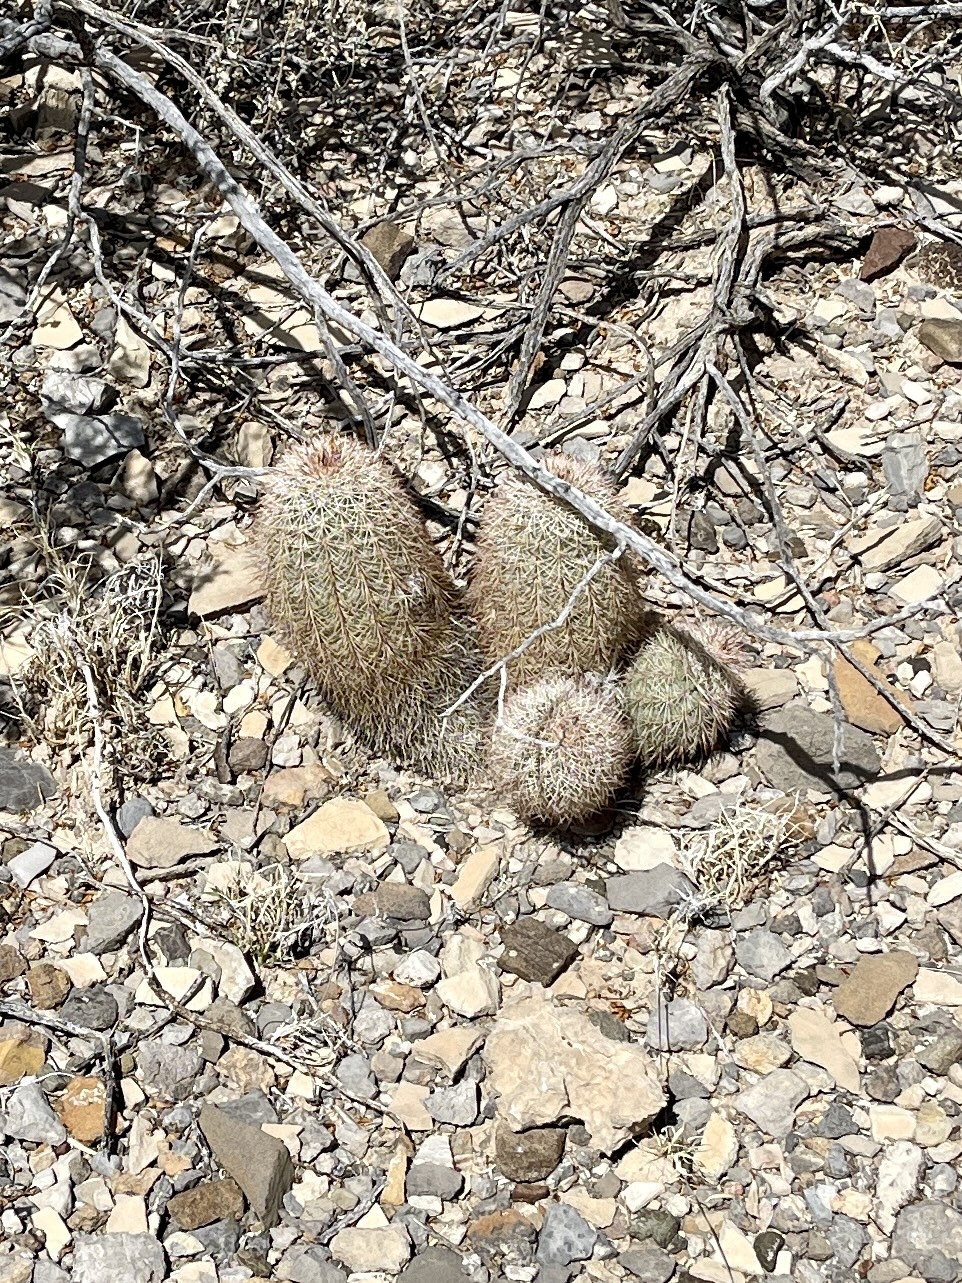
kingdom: Plantae
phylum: Tracheophyta
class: Magnoliopsida
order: Caryophyllales
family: Cactaceae
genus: Echinocereus
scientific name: Echinocereus dasyacanthus
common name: Spiny hedgehog cactus
